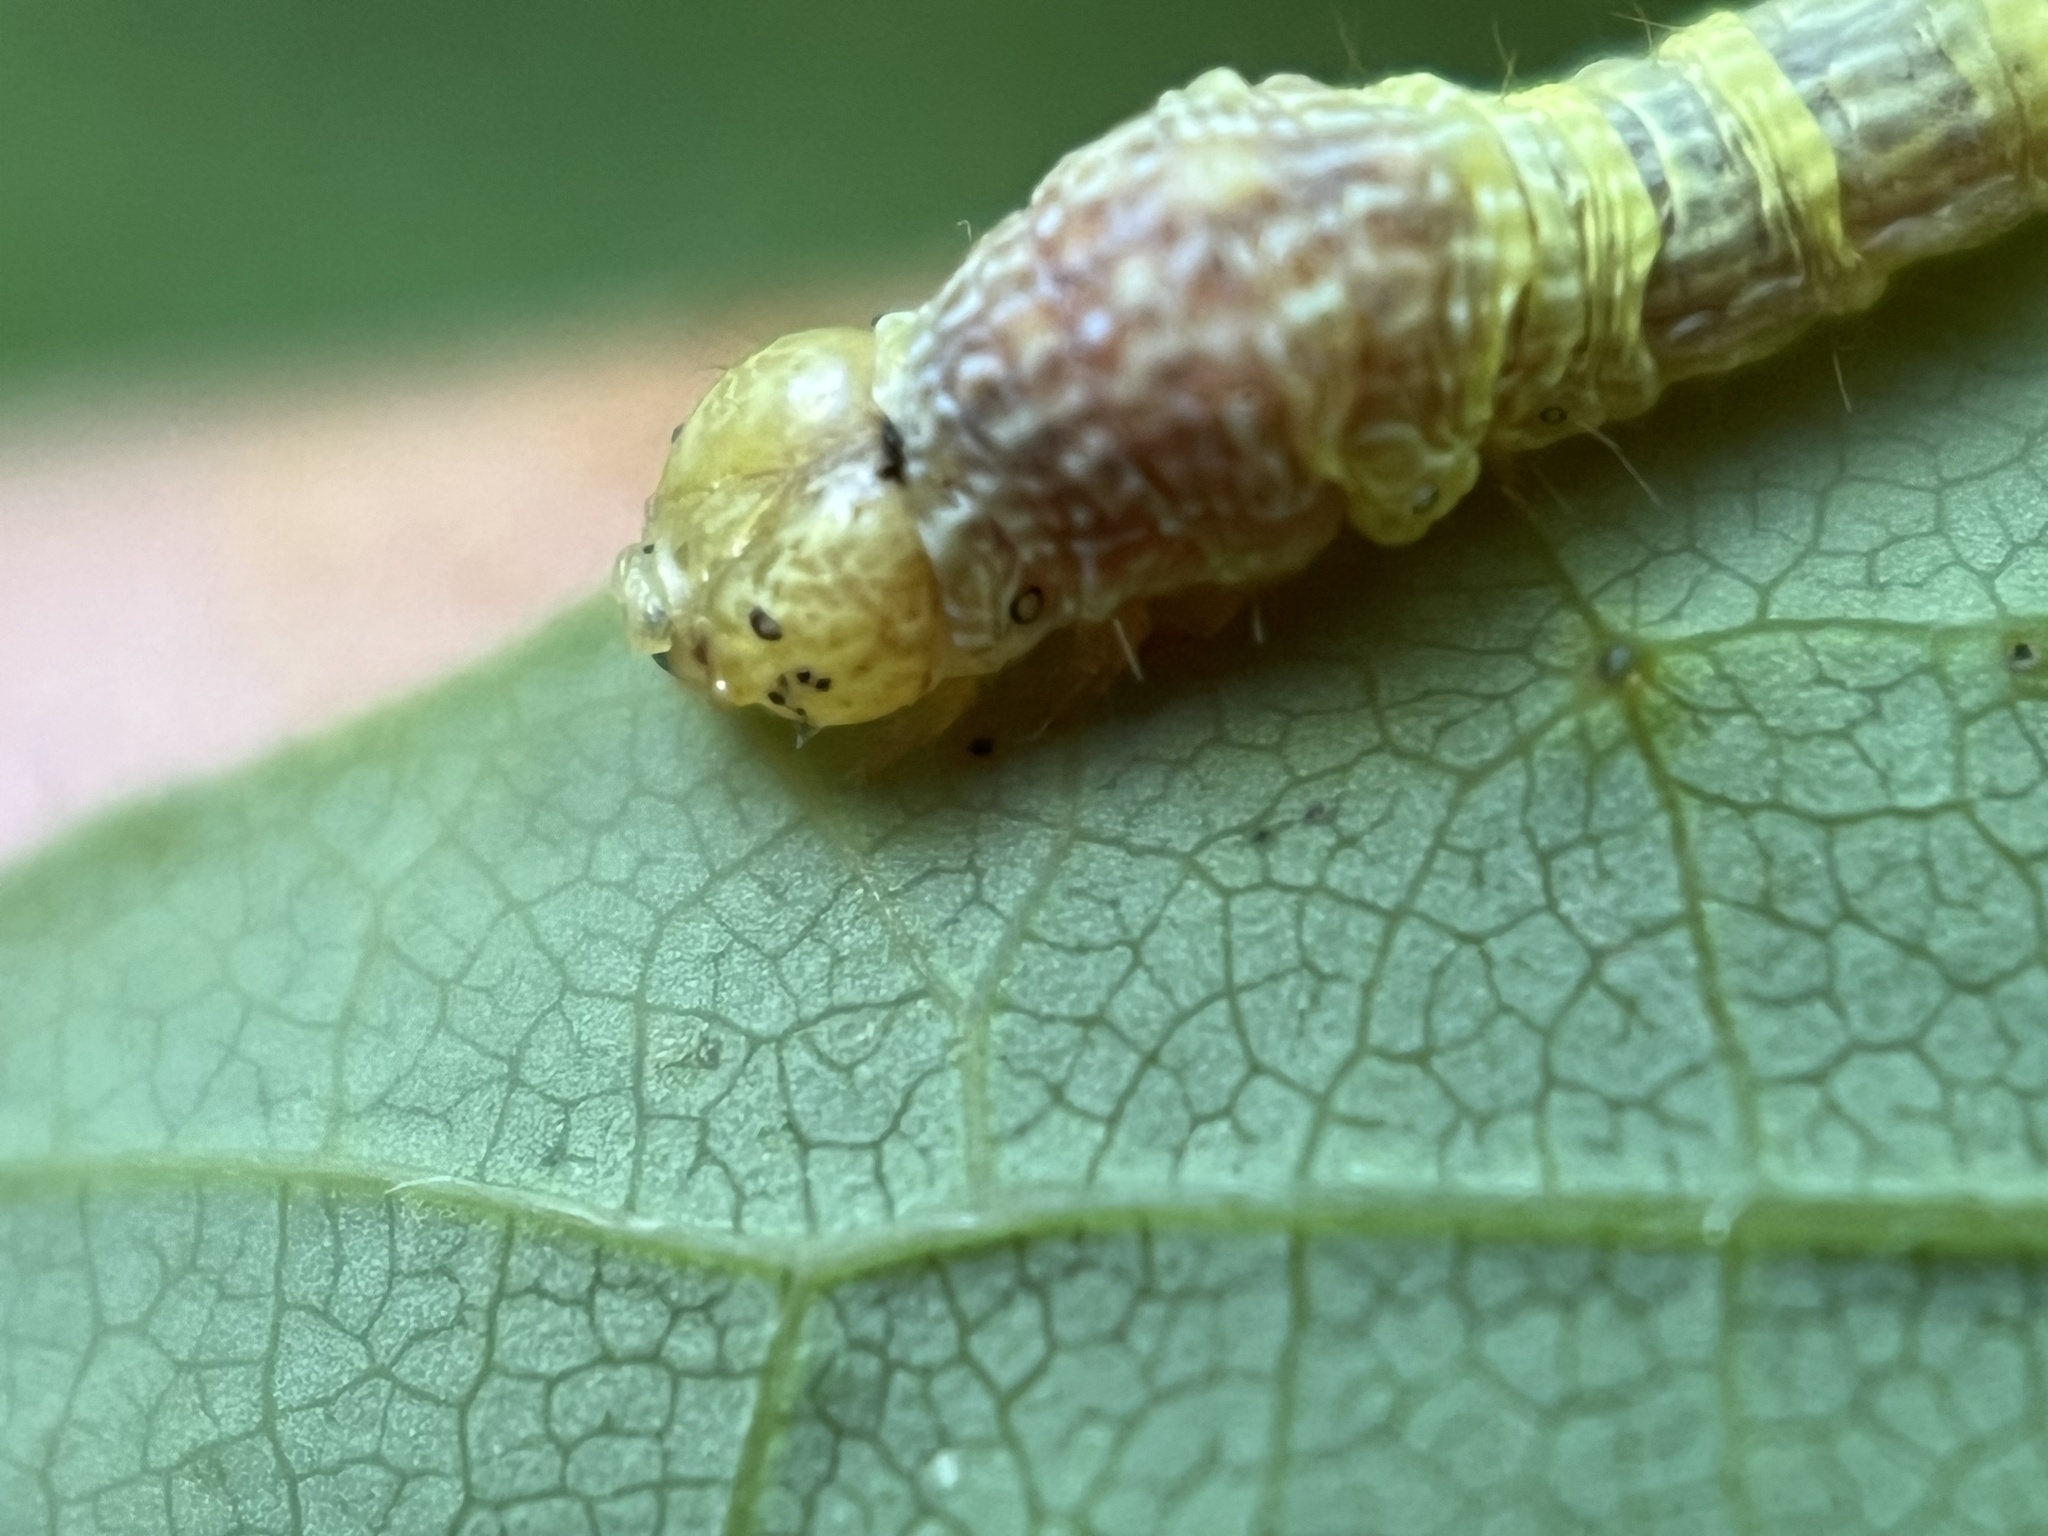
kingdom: Animalia
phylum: Arthropoda
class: Insecta
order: Lepidoptera
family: Geometridae
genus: Epimecis
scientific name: Epimecis hortaria
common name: Tulip-tree beauty
